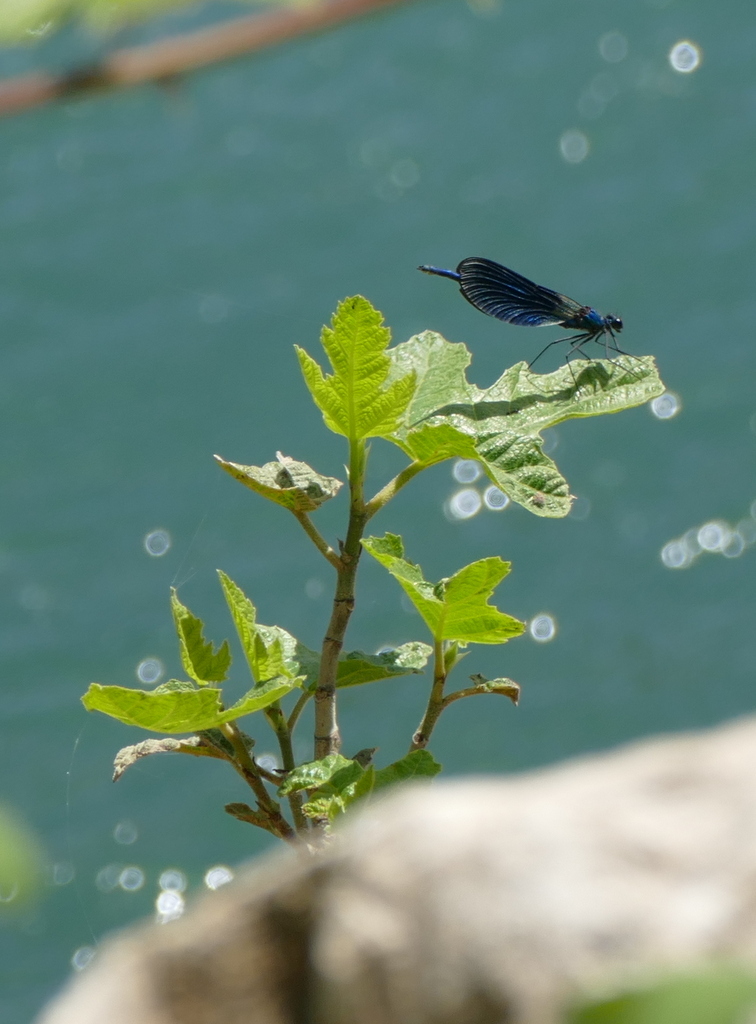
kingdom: Animalia
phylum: Arthropoda
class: Insecta
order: Odonata
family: Calopterygidae
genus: Calopteryx
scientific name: Calopteryx splendens
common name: Banded demoiselle
